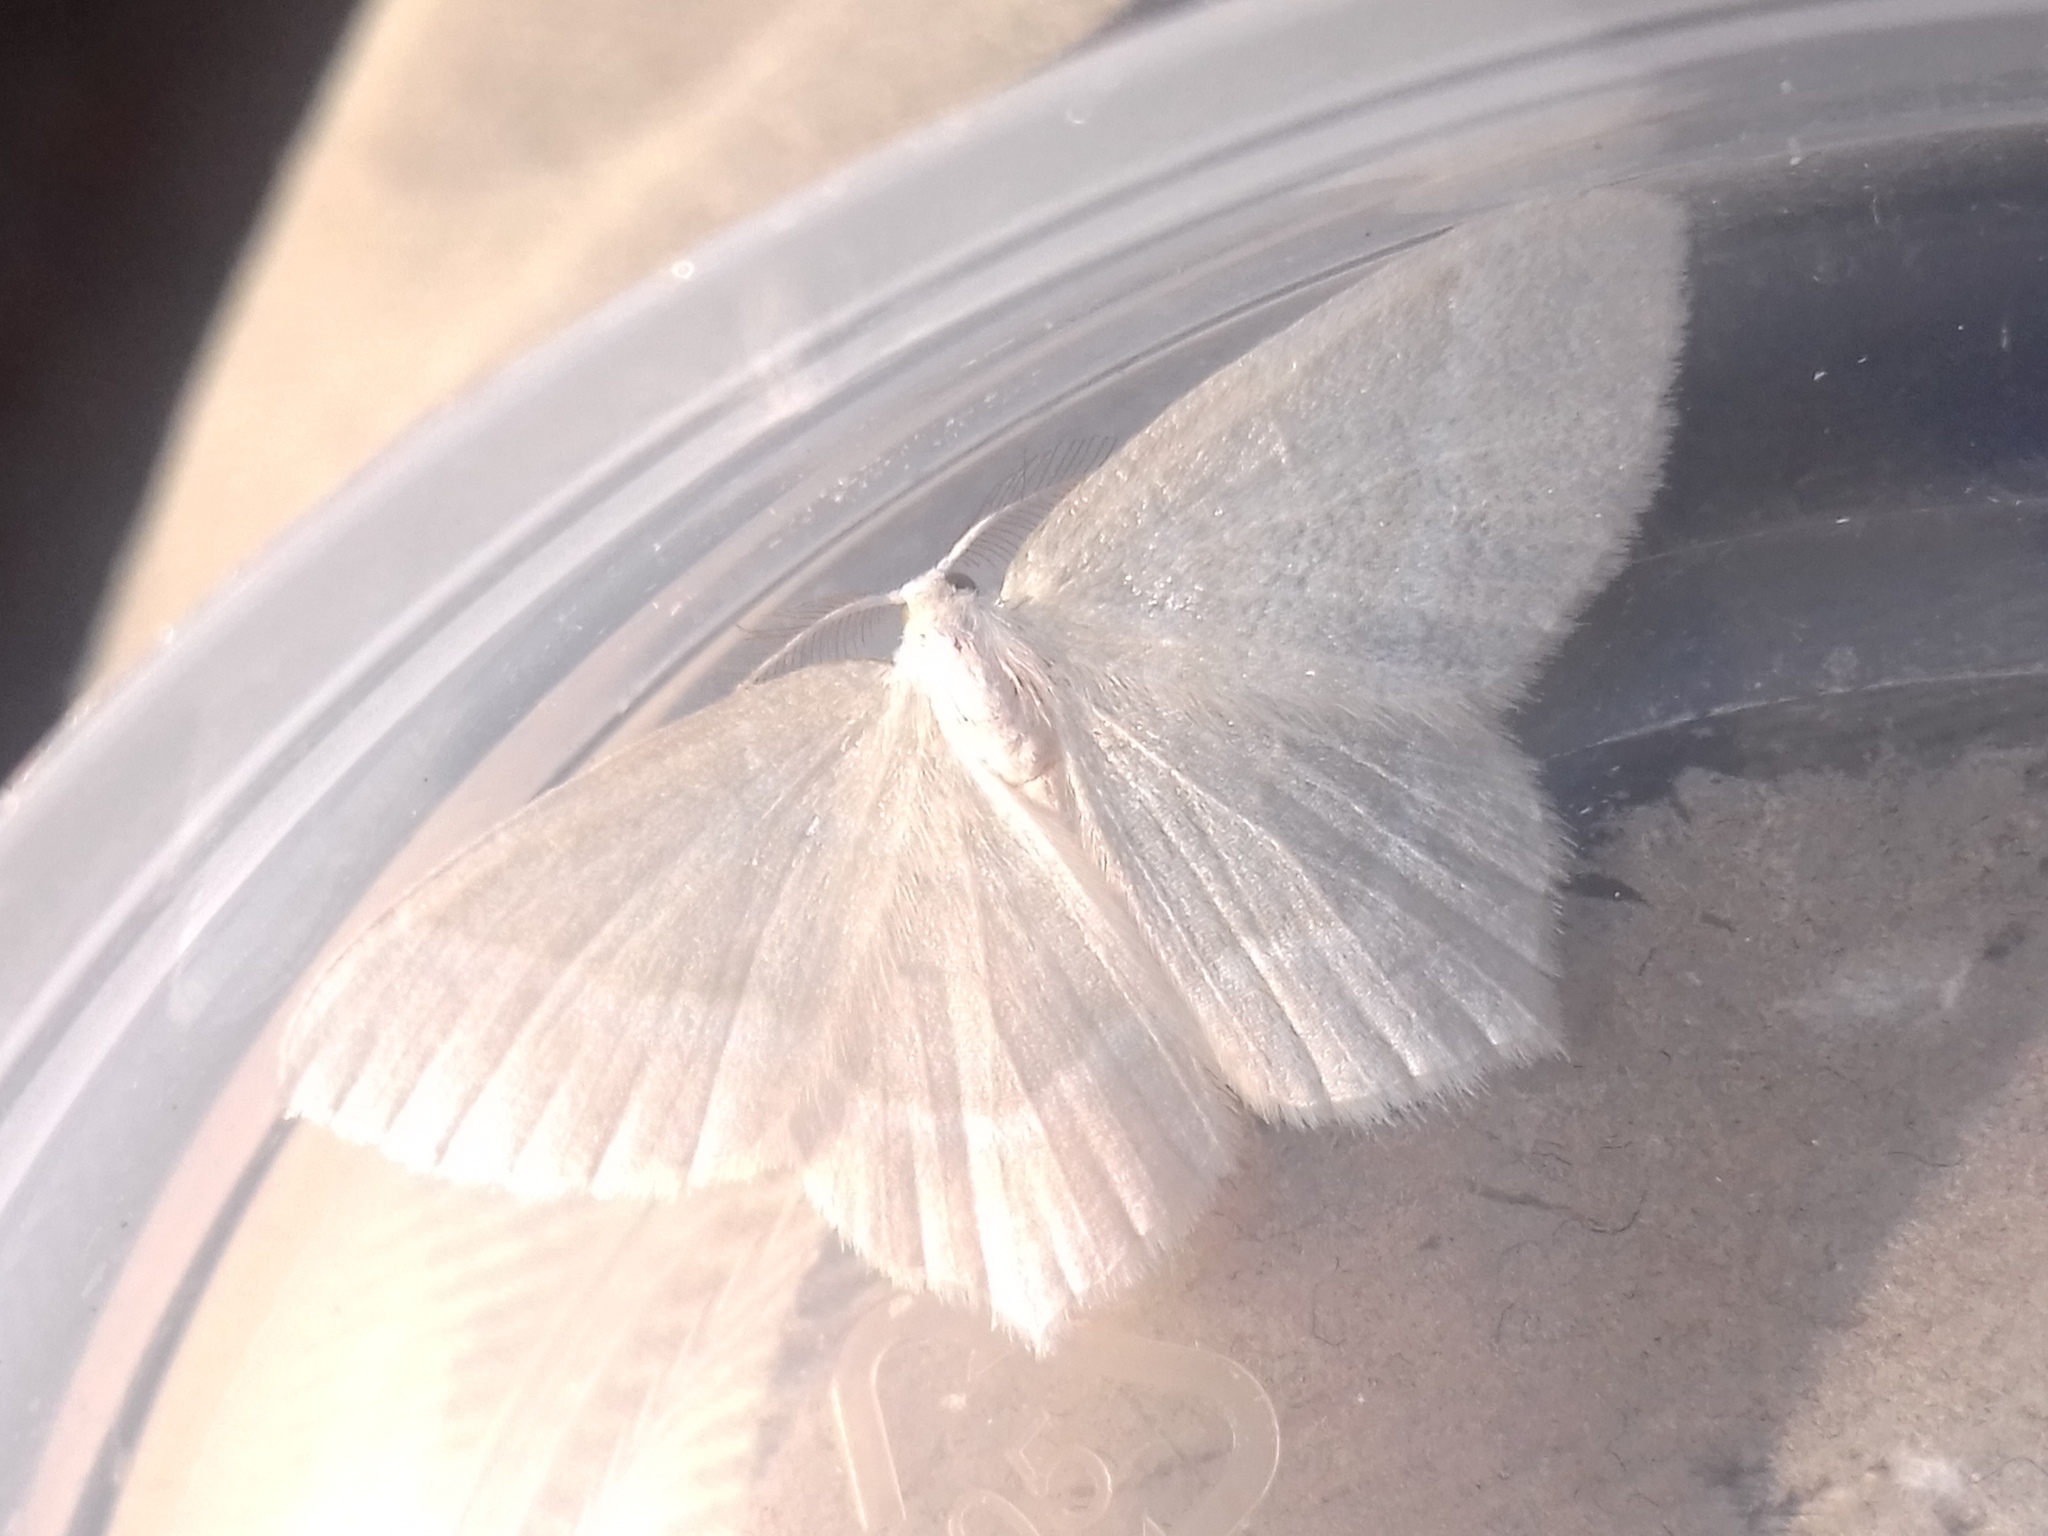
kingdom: Animalia
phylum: Arthropoda
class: Insecta
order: Lepidoptera
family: Geometridae
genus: Jodis
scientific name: Jodis lactearia
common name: Little emerald
